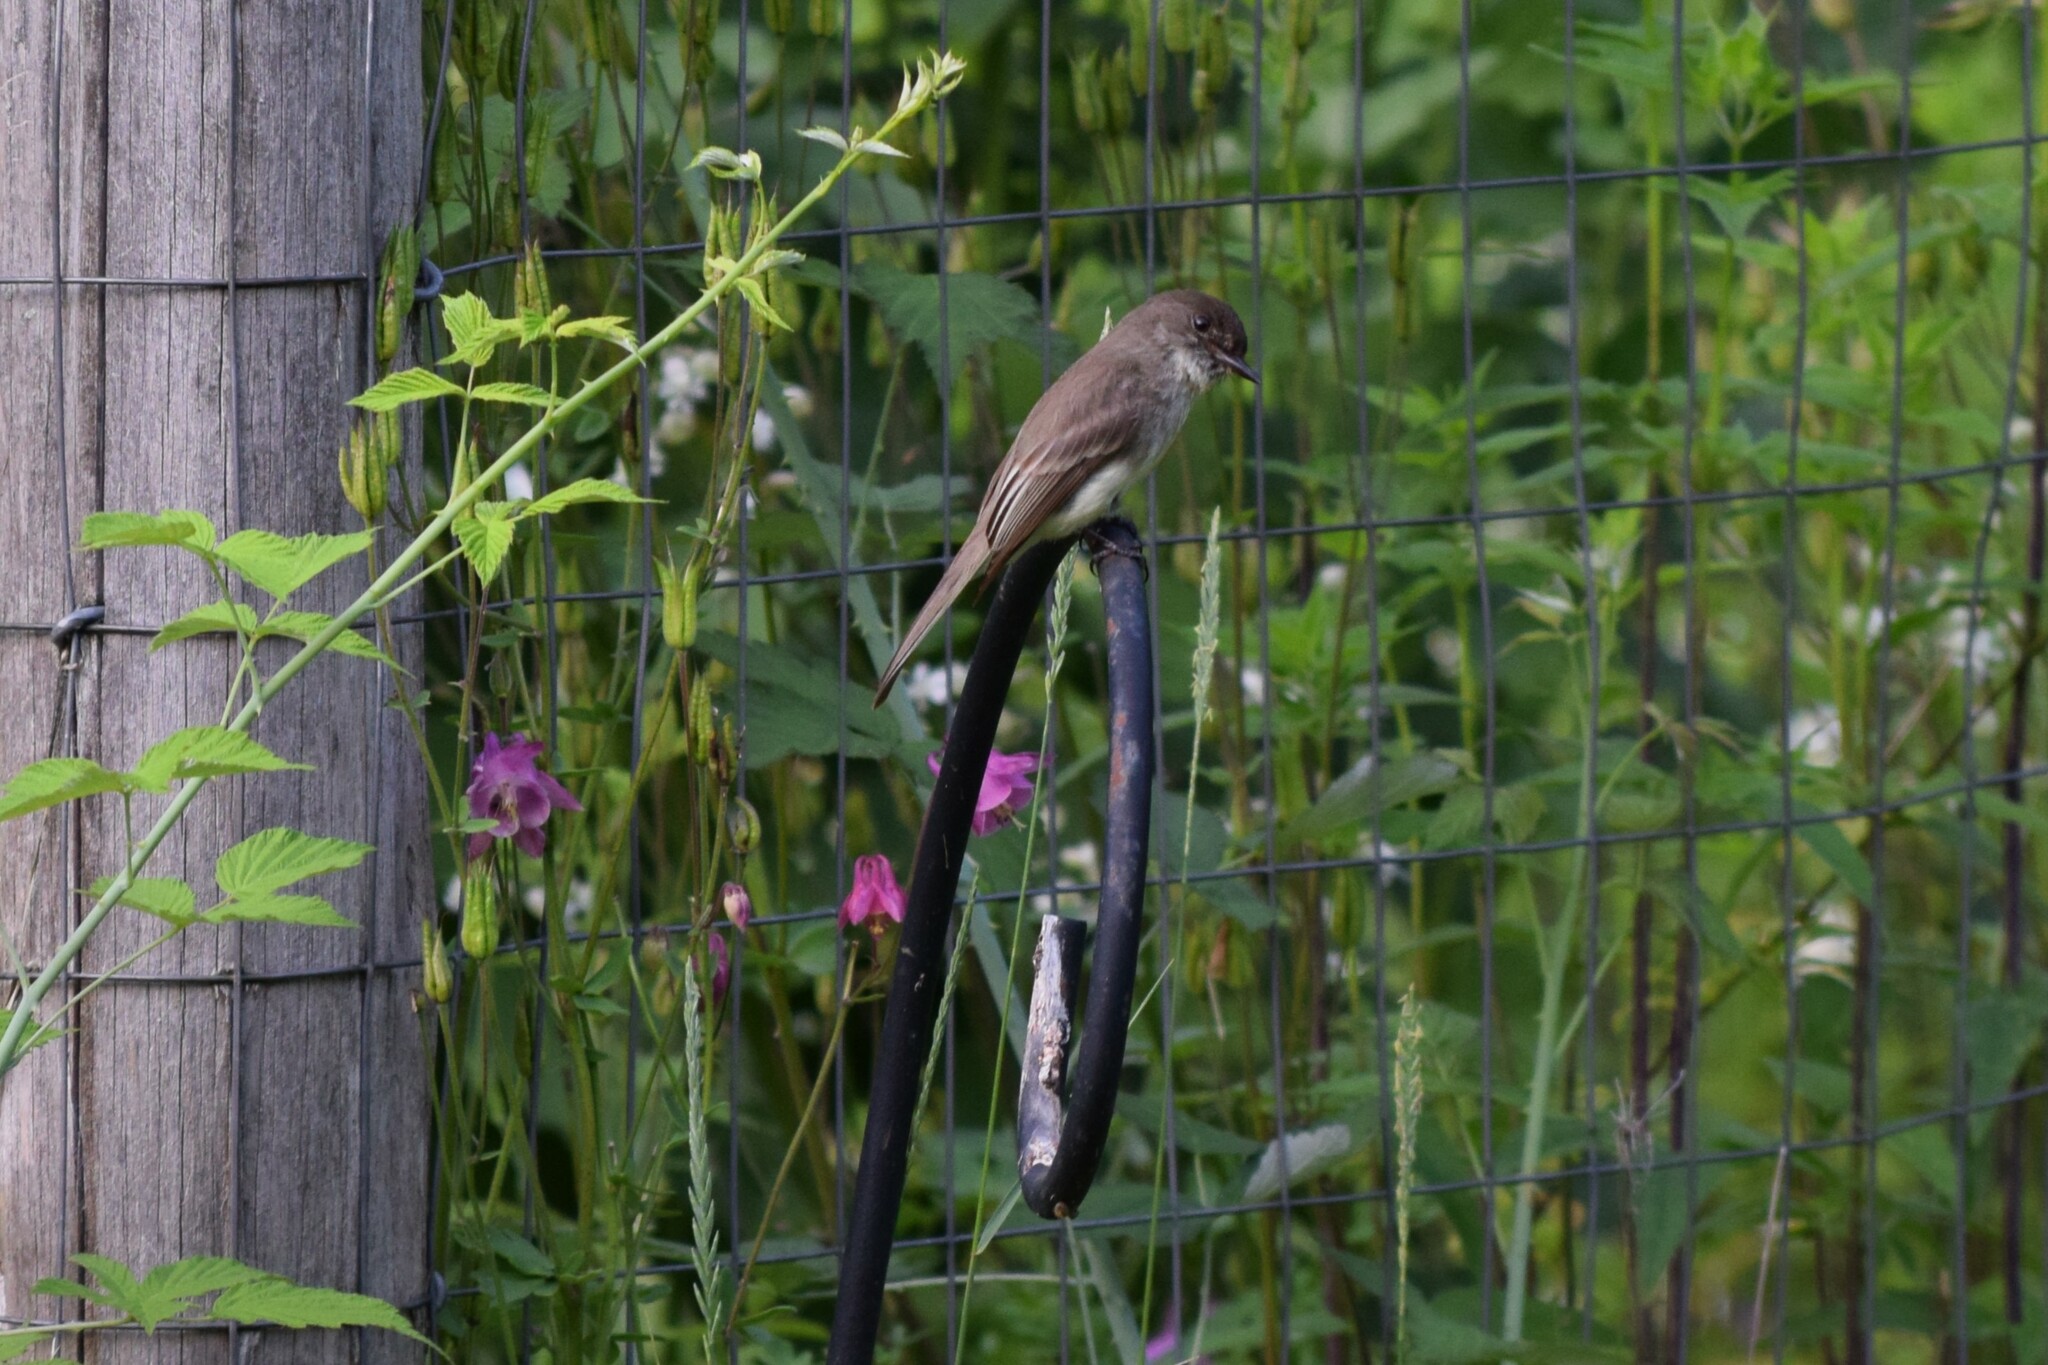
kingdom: Animalia
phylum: Chordata
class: Aves
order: Passeriformes
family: Tyrannidae
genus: Sayornis
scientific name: Sayornis phoebe
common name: Eastern phoebe
